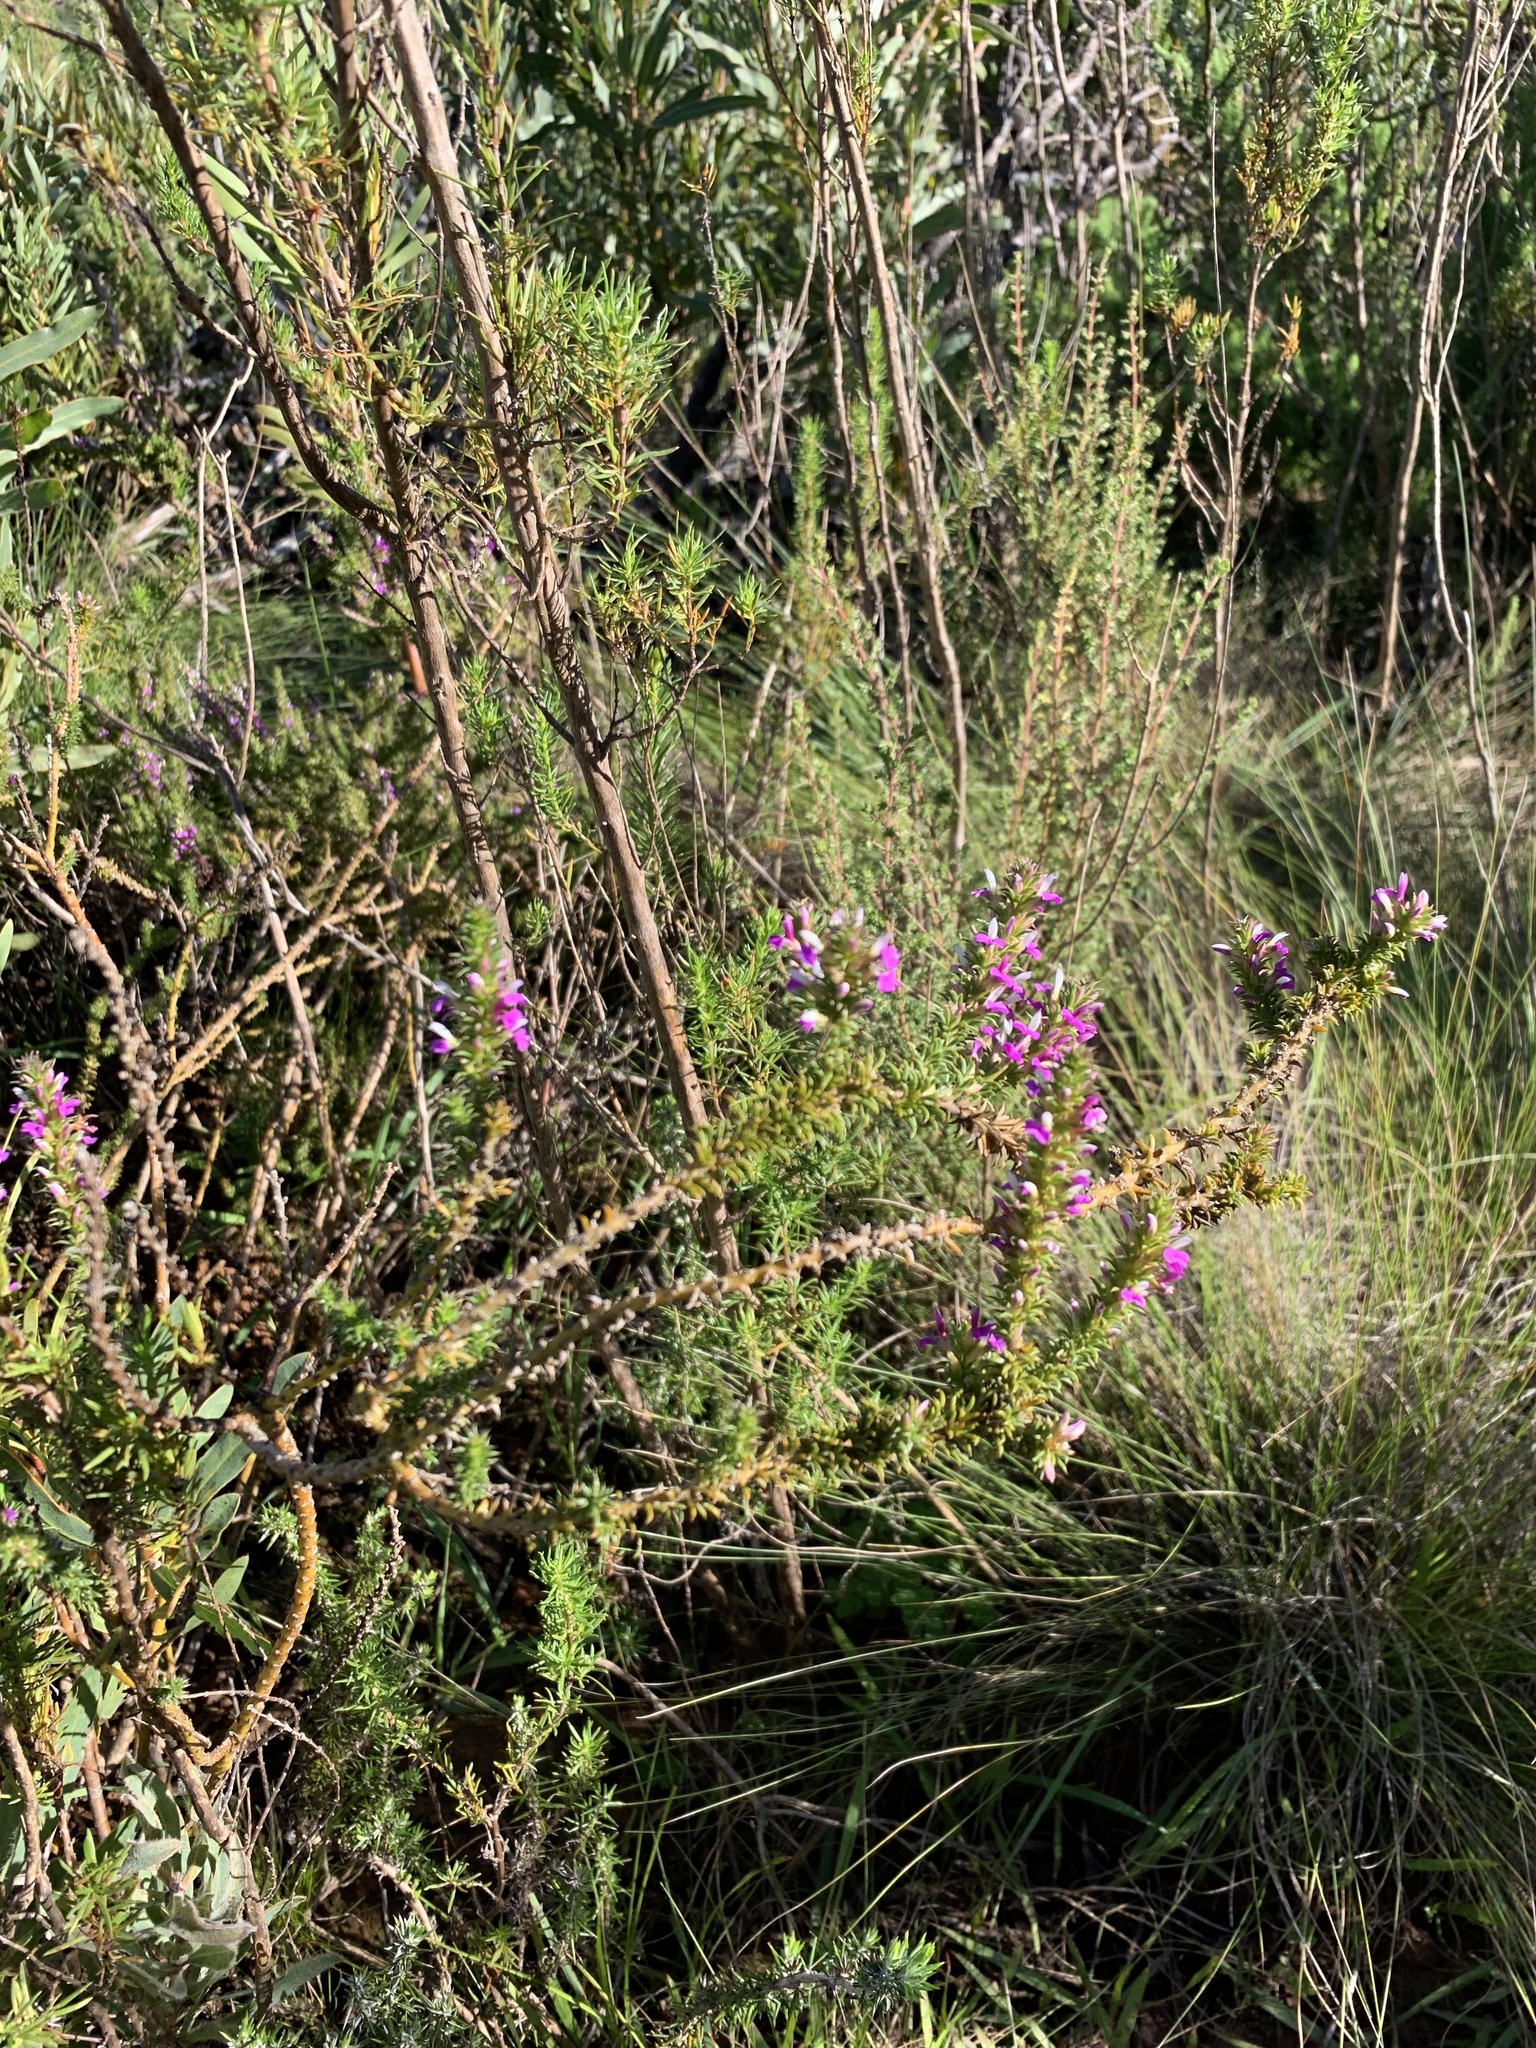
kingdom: Plantae
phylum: Tracheophyta
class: Magnoliopsida
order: Fabales
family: Polygalaceae
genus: Muraltia
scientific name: Muraltia heisteria
